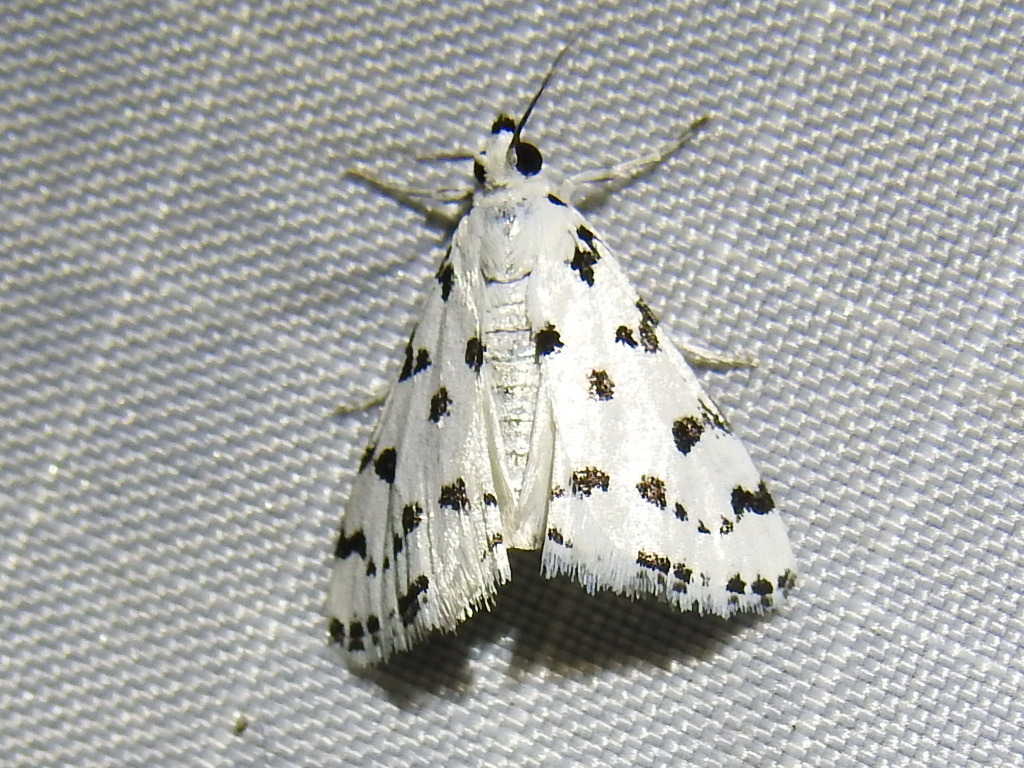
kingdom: Animalia
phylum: Arthropoda
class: Insecta
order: Lepidoptera
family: Crambidae
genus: Eustixia
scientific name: Eustixia pupula
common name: American cabbage pearl
